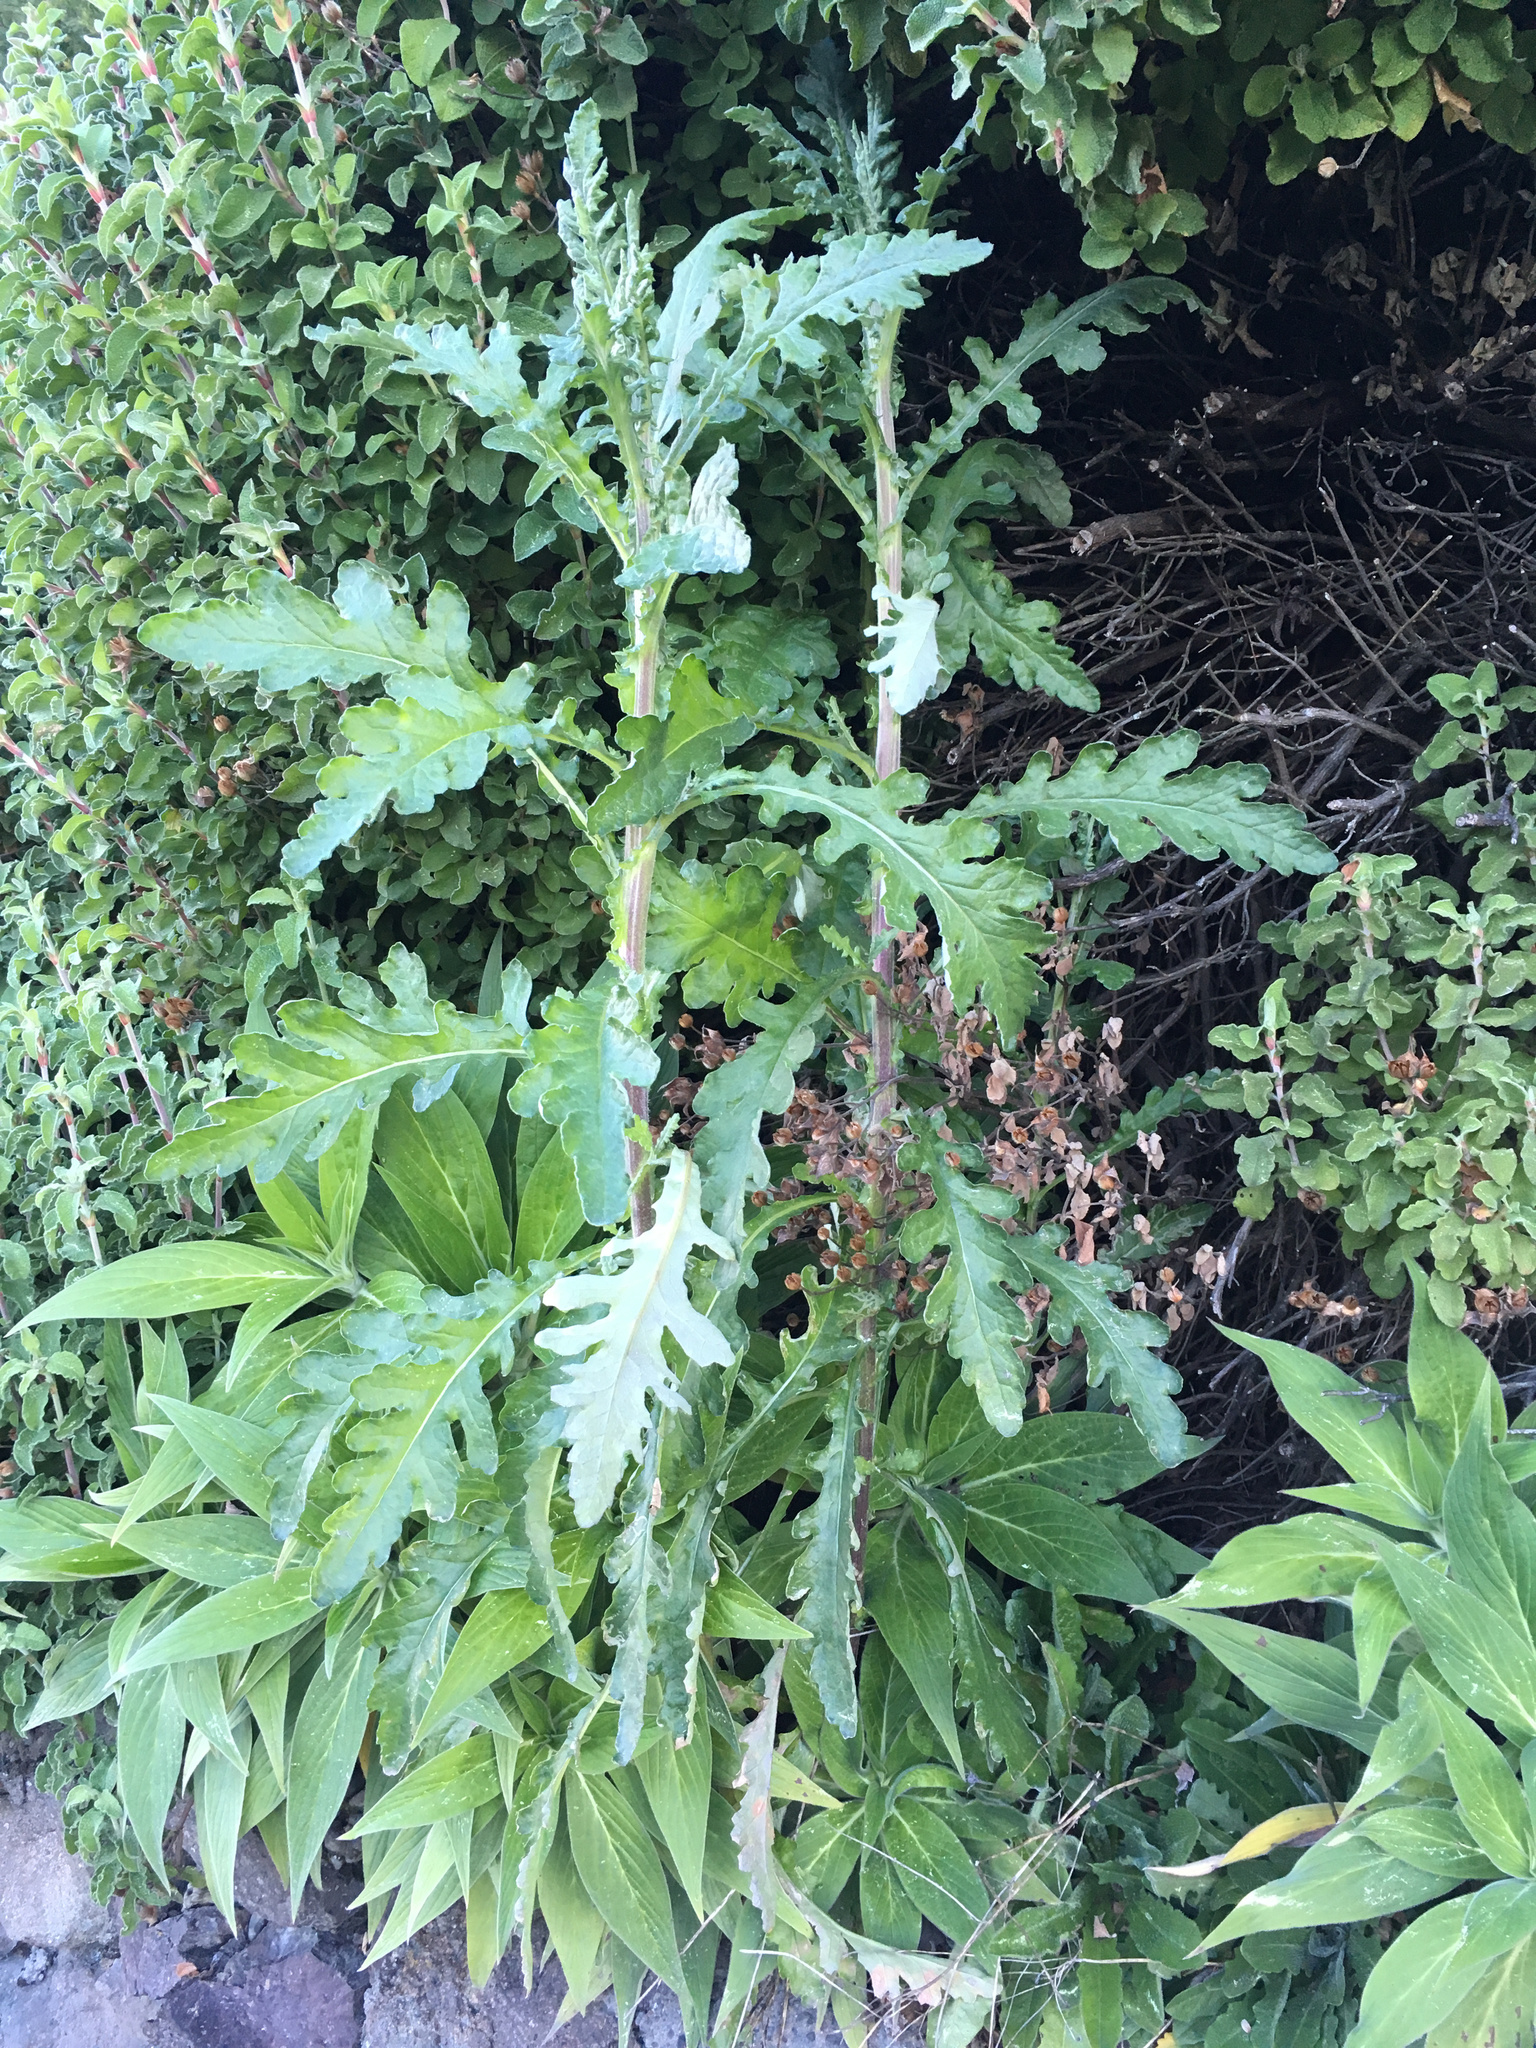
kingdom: Plantae
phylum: Tracheophyta
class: Magnoliopsida
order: Asterales
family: Asteraceae
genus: Senecio
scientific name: Senecio glomeratus
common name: Cutleaf burnweed
